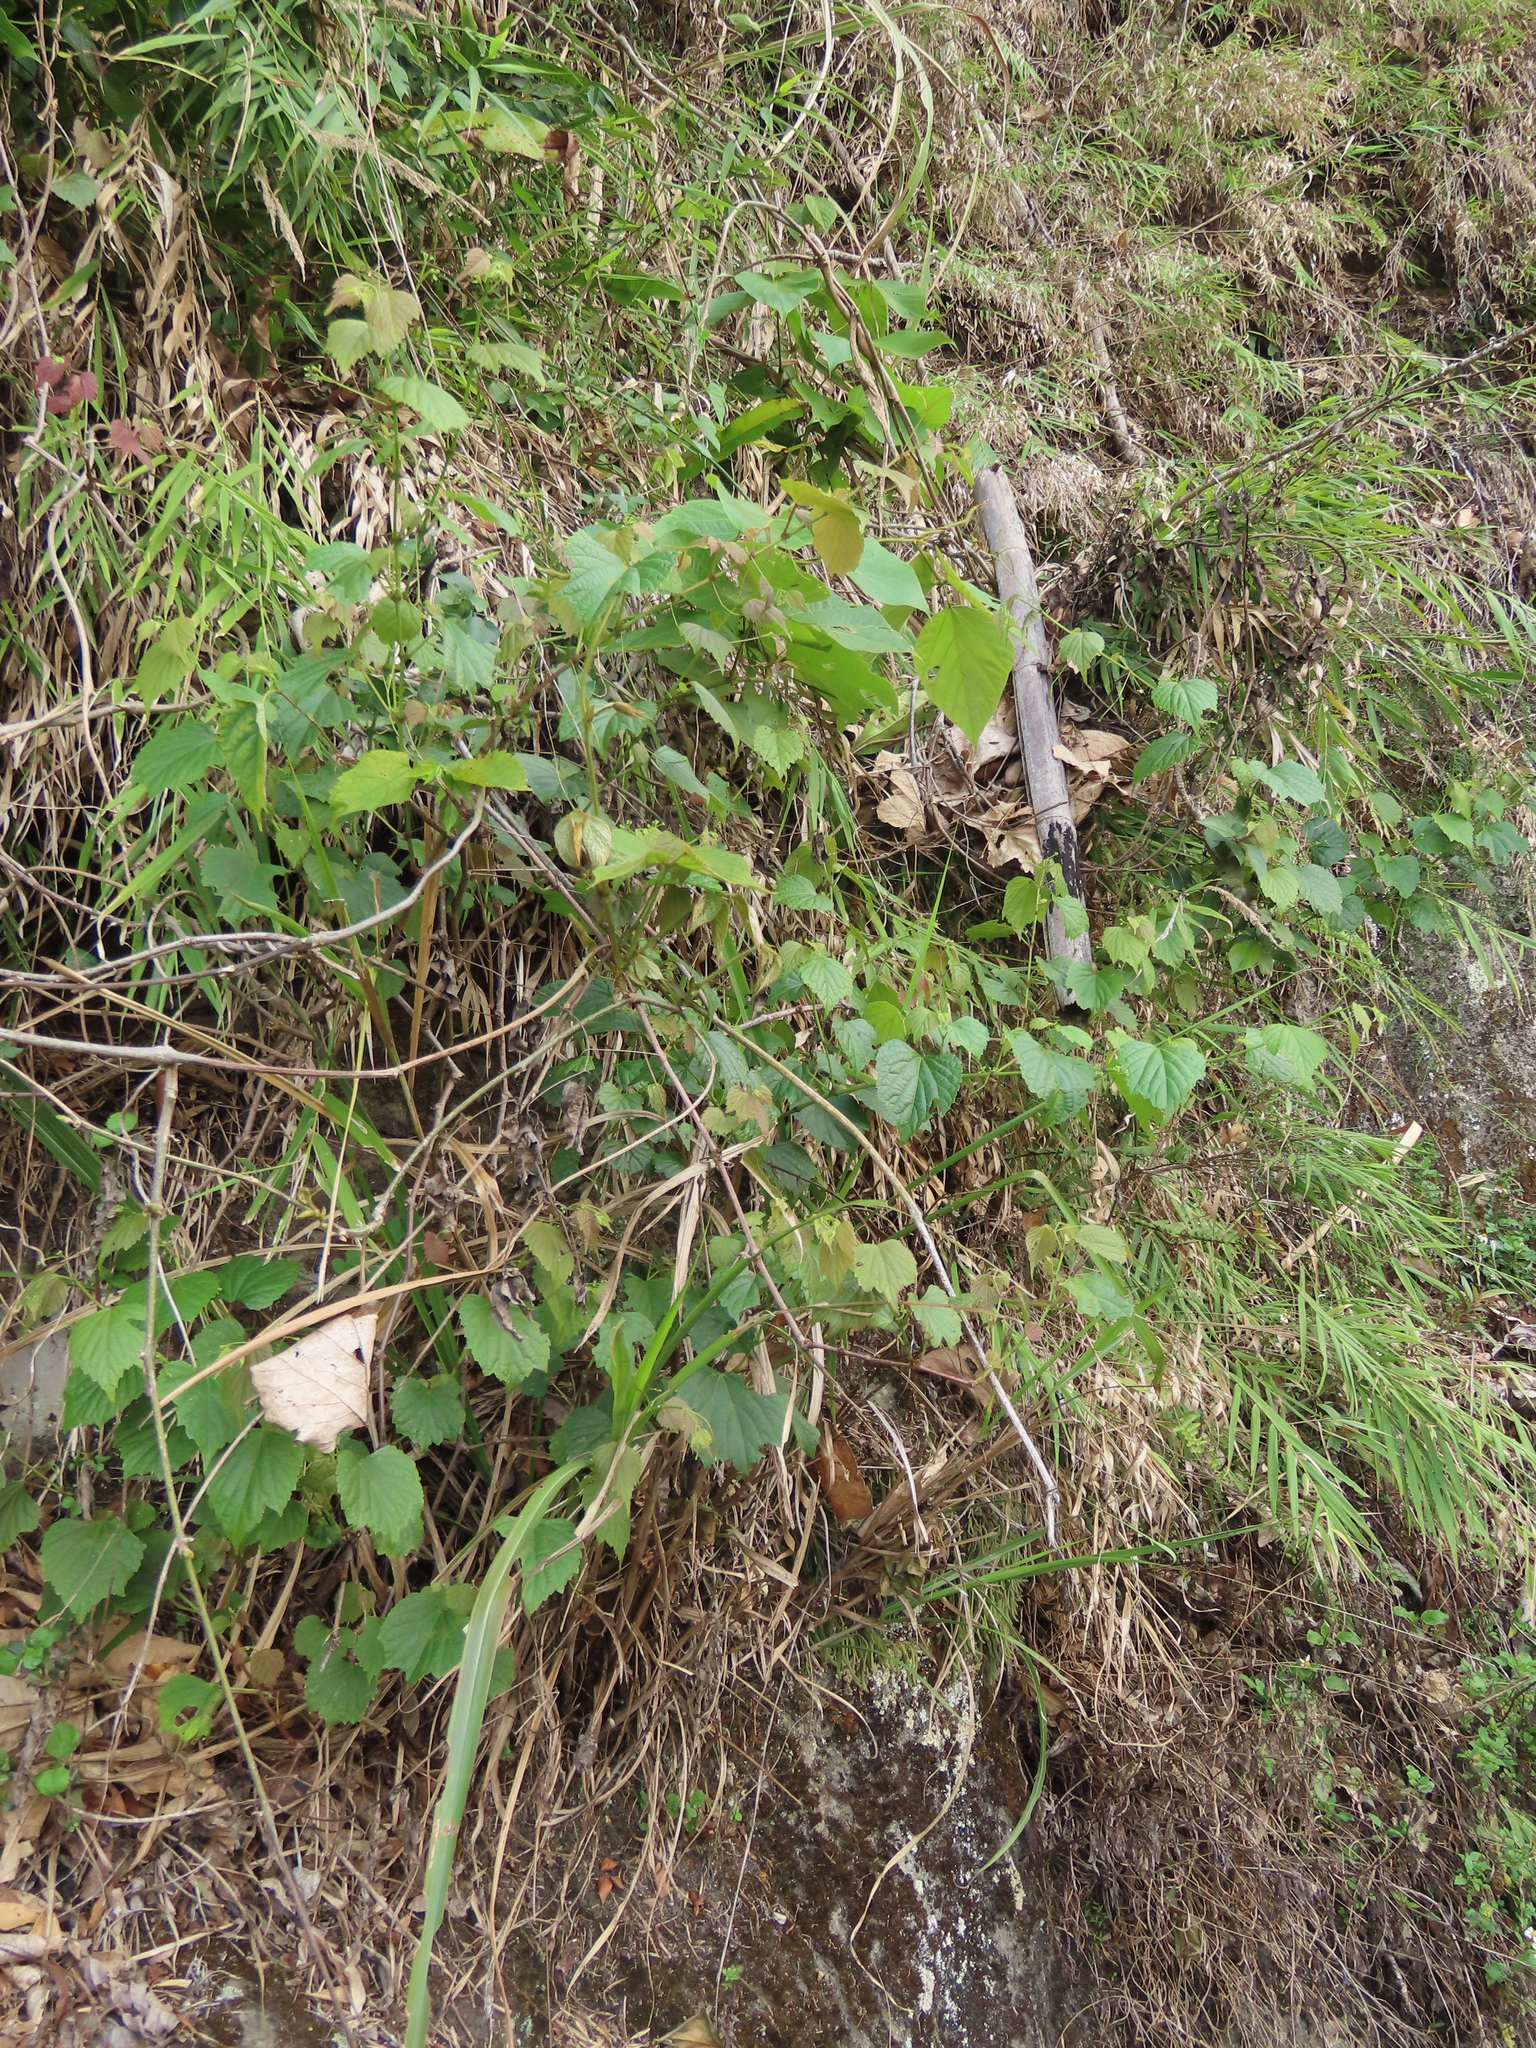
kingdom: Plantae
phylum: Tracheophyta
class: Liliopsida
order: Poales
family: Poaceae
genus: Arundo
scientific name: Arundo formosana
